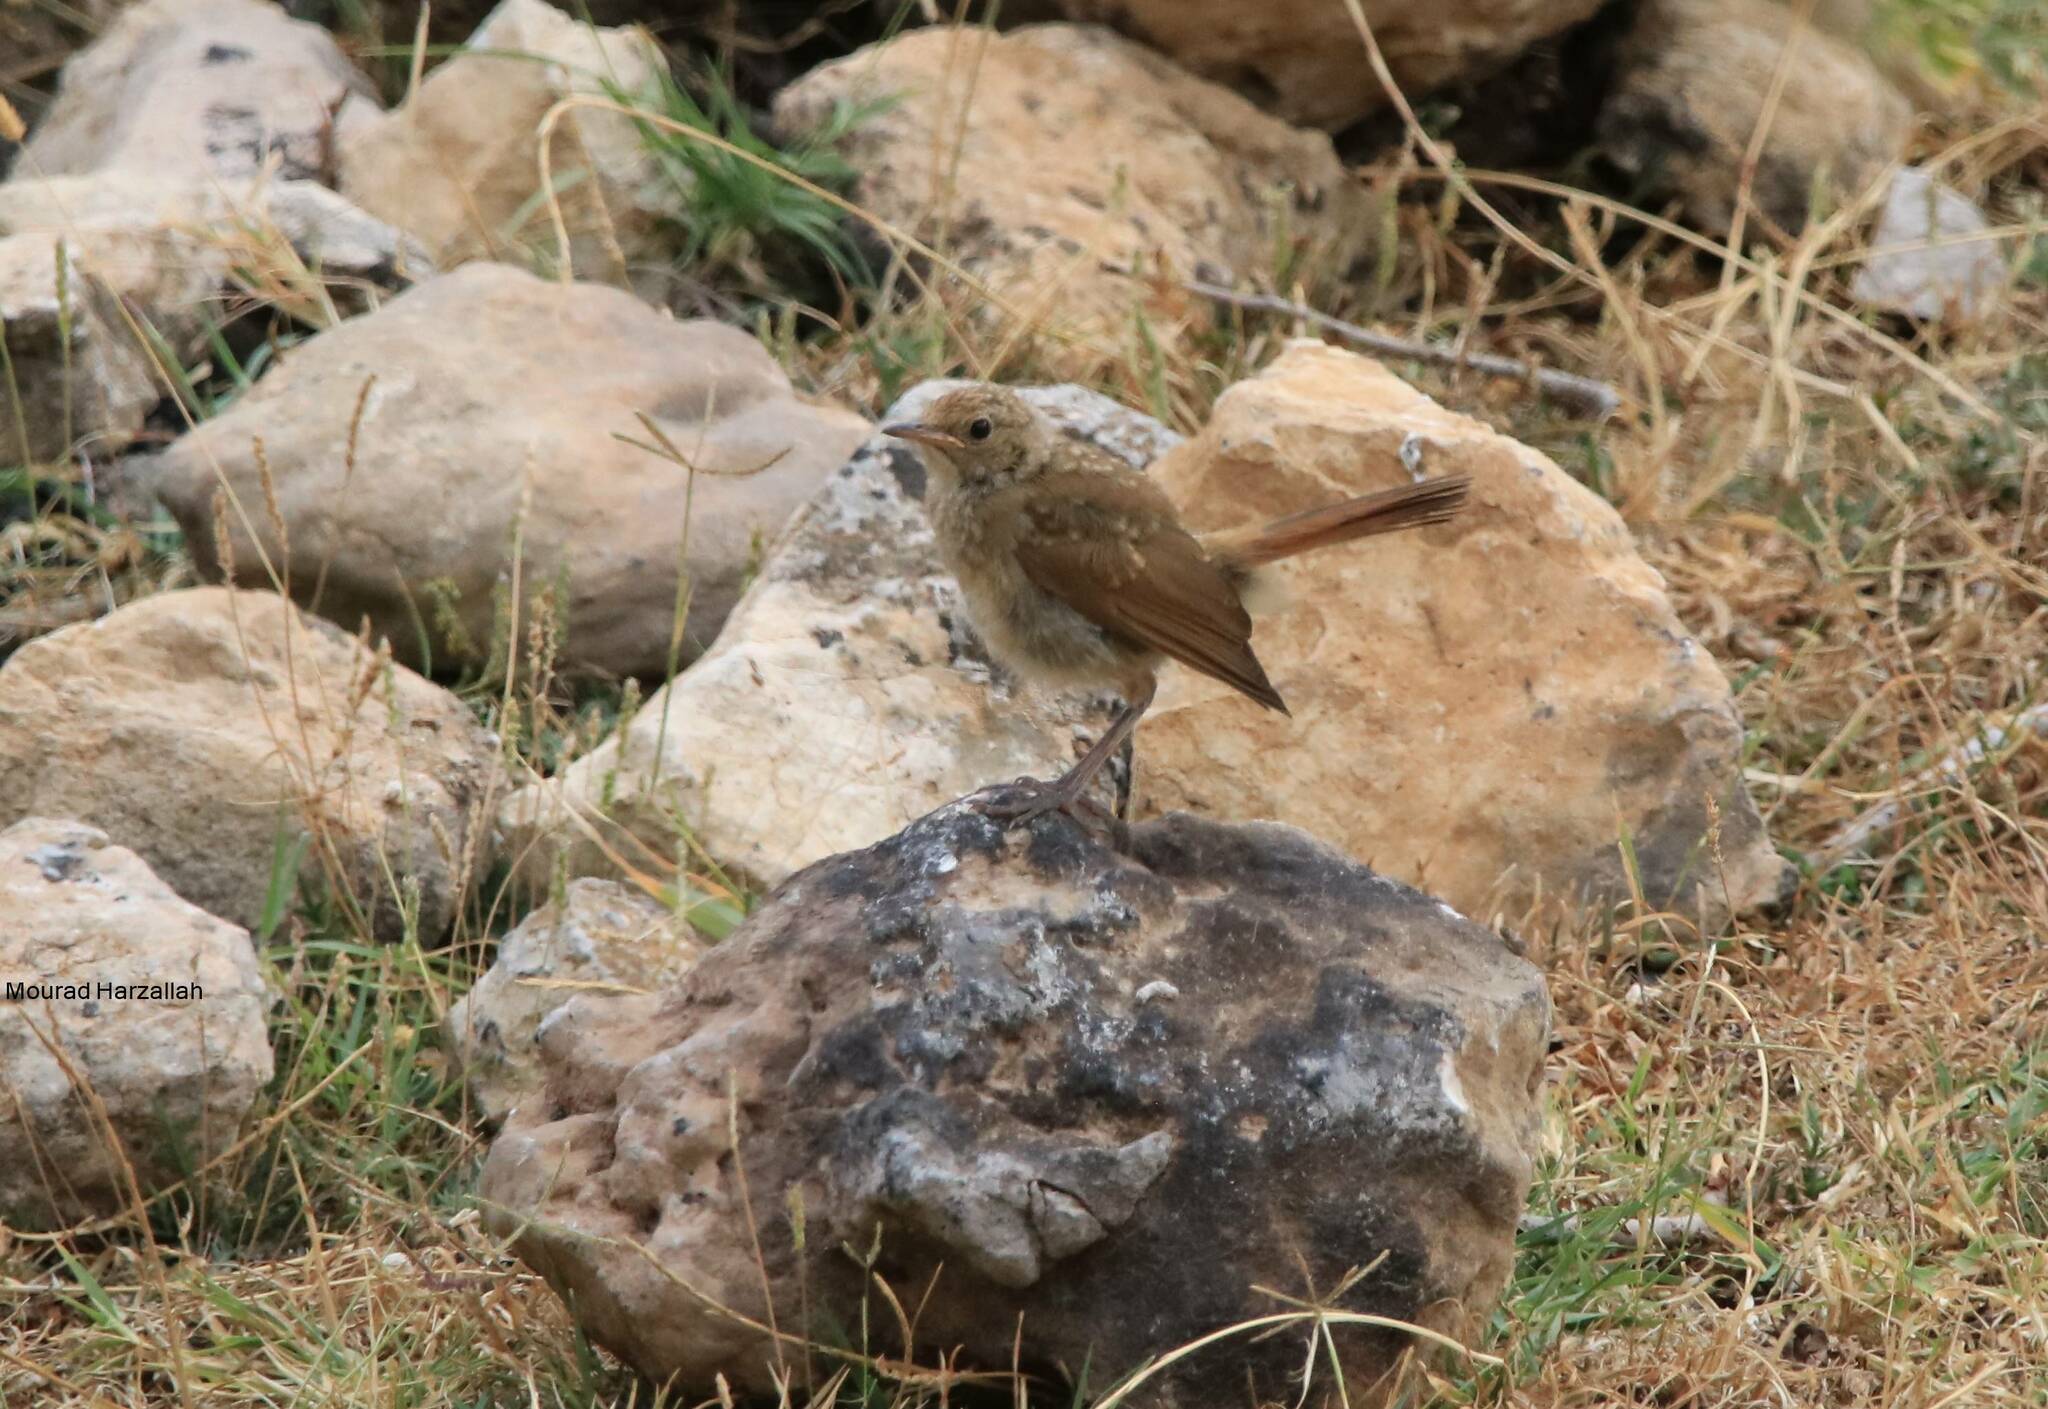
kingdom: Animalia
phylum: Chordata
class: Aves
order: Passeriformes
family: Muscicapidae
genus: Luscinia
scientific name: Luscinia megarhynchos
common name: Common nightingale
